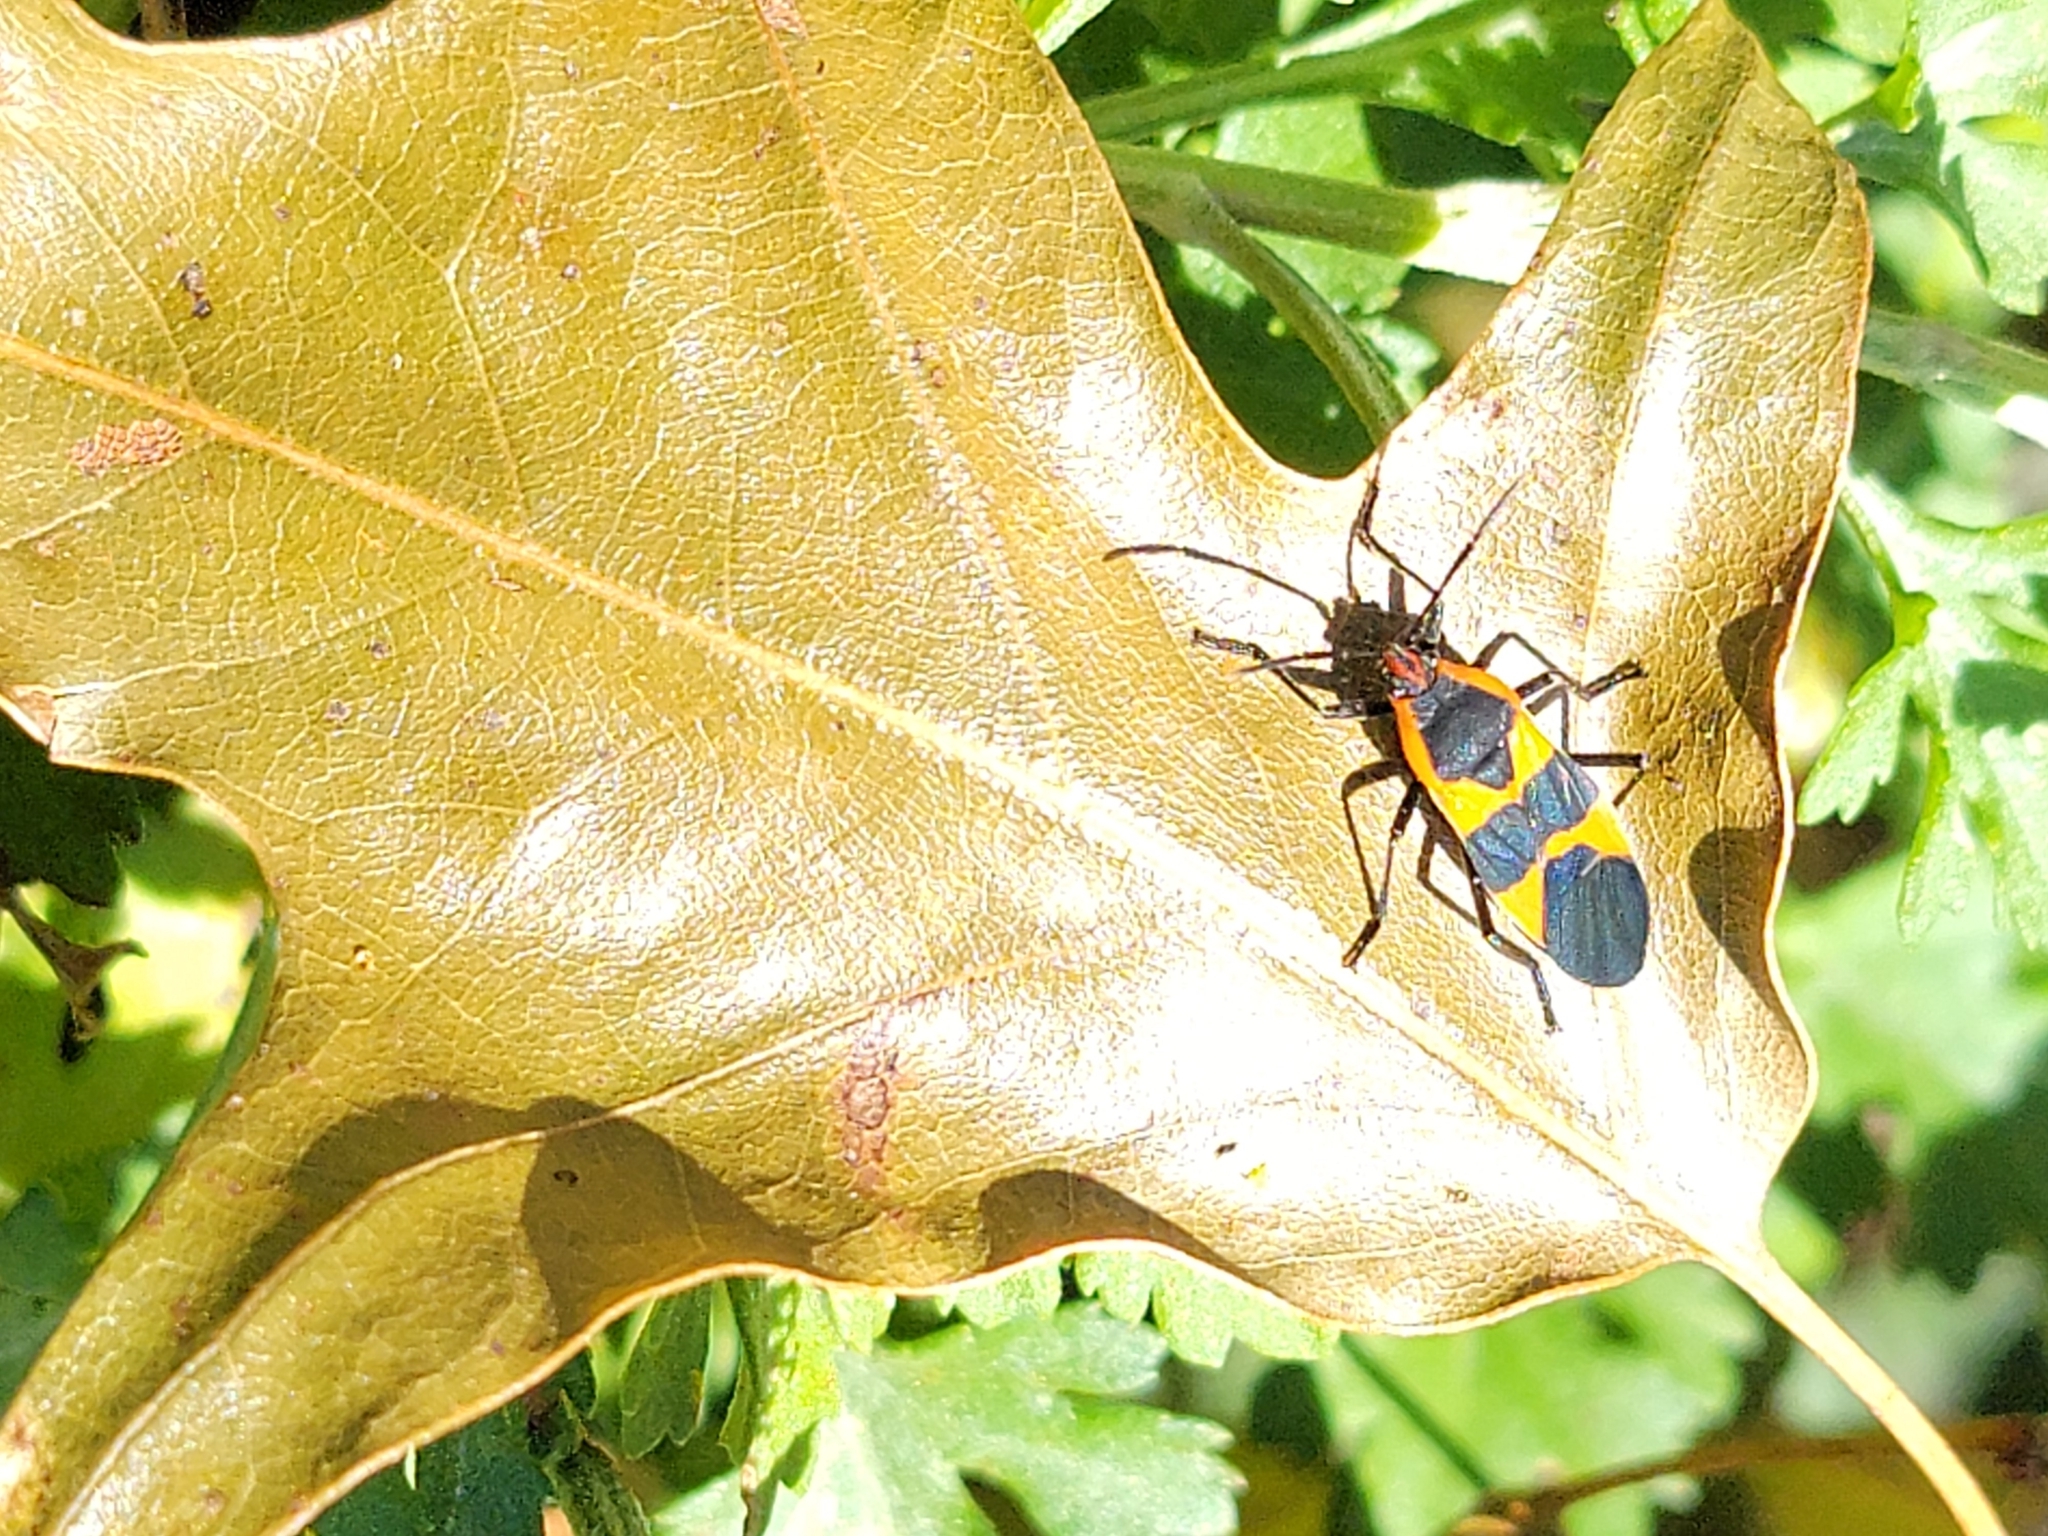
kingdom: Animalia
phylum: Arthropoda
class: Insecta
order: Hemiptera
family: Lygaeidae
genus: Oncopeltus
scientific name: Oncopeltus fasciatus
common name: Large milkweed bug
